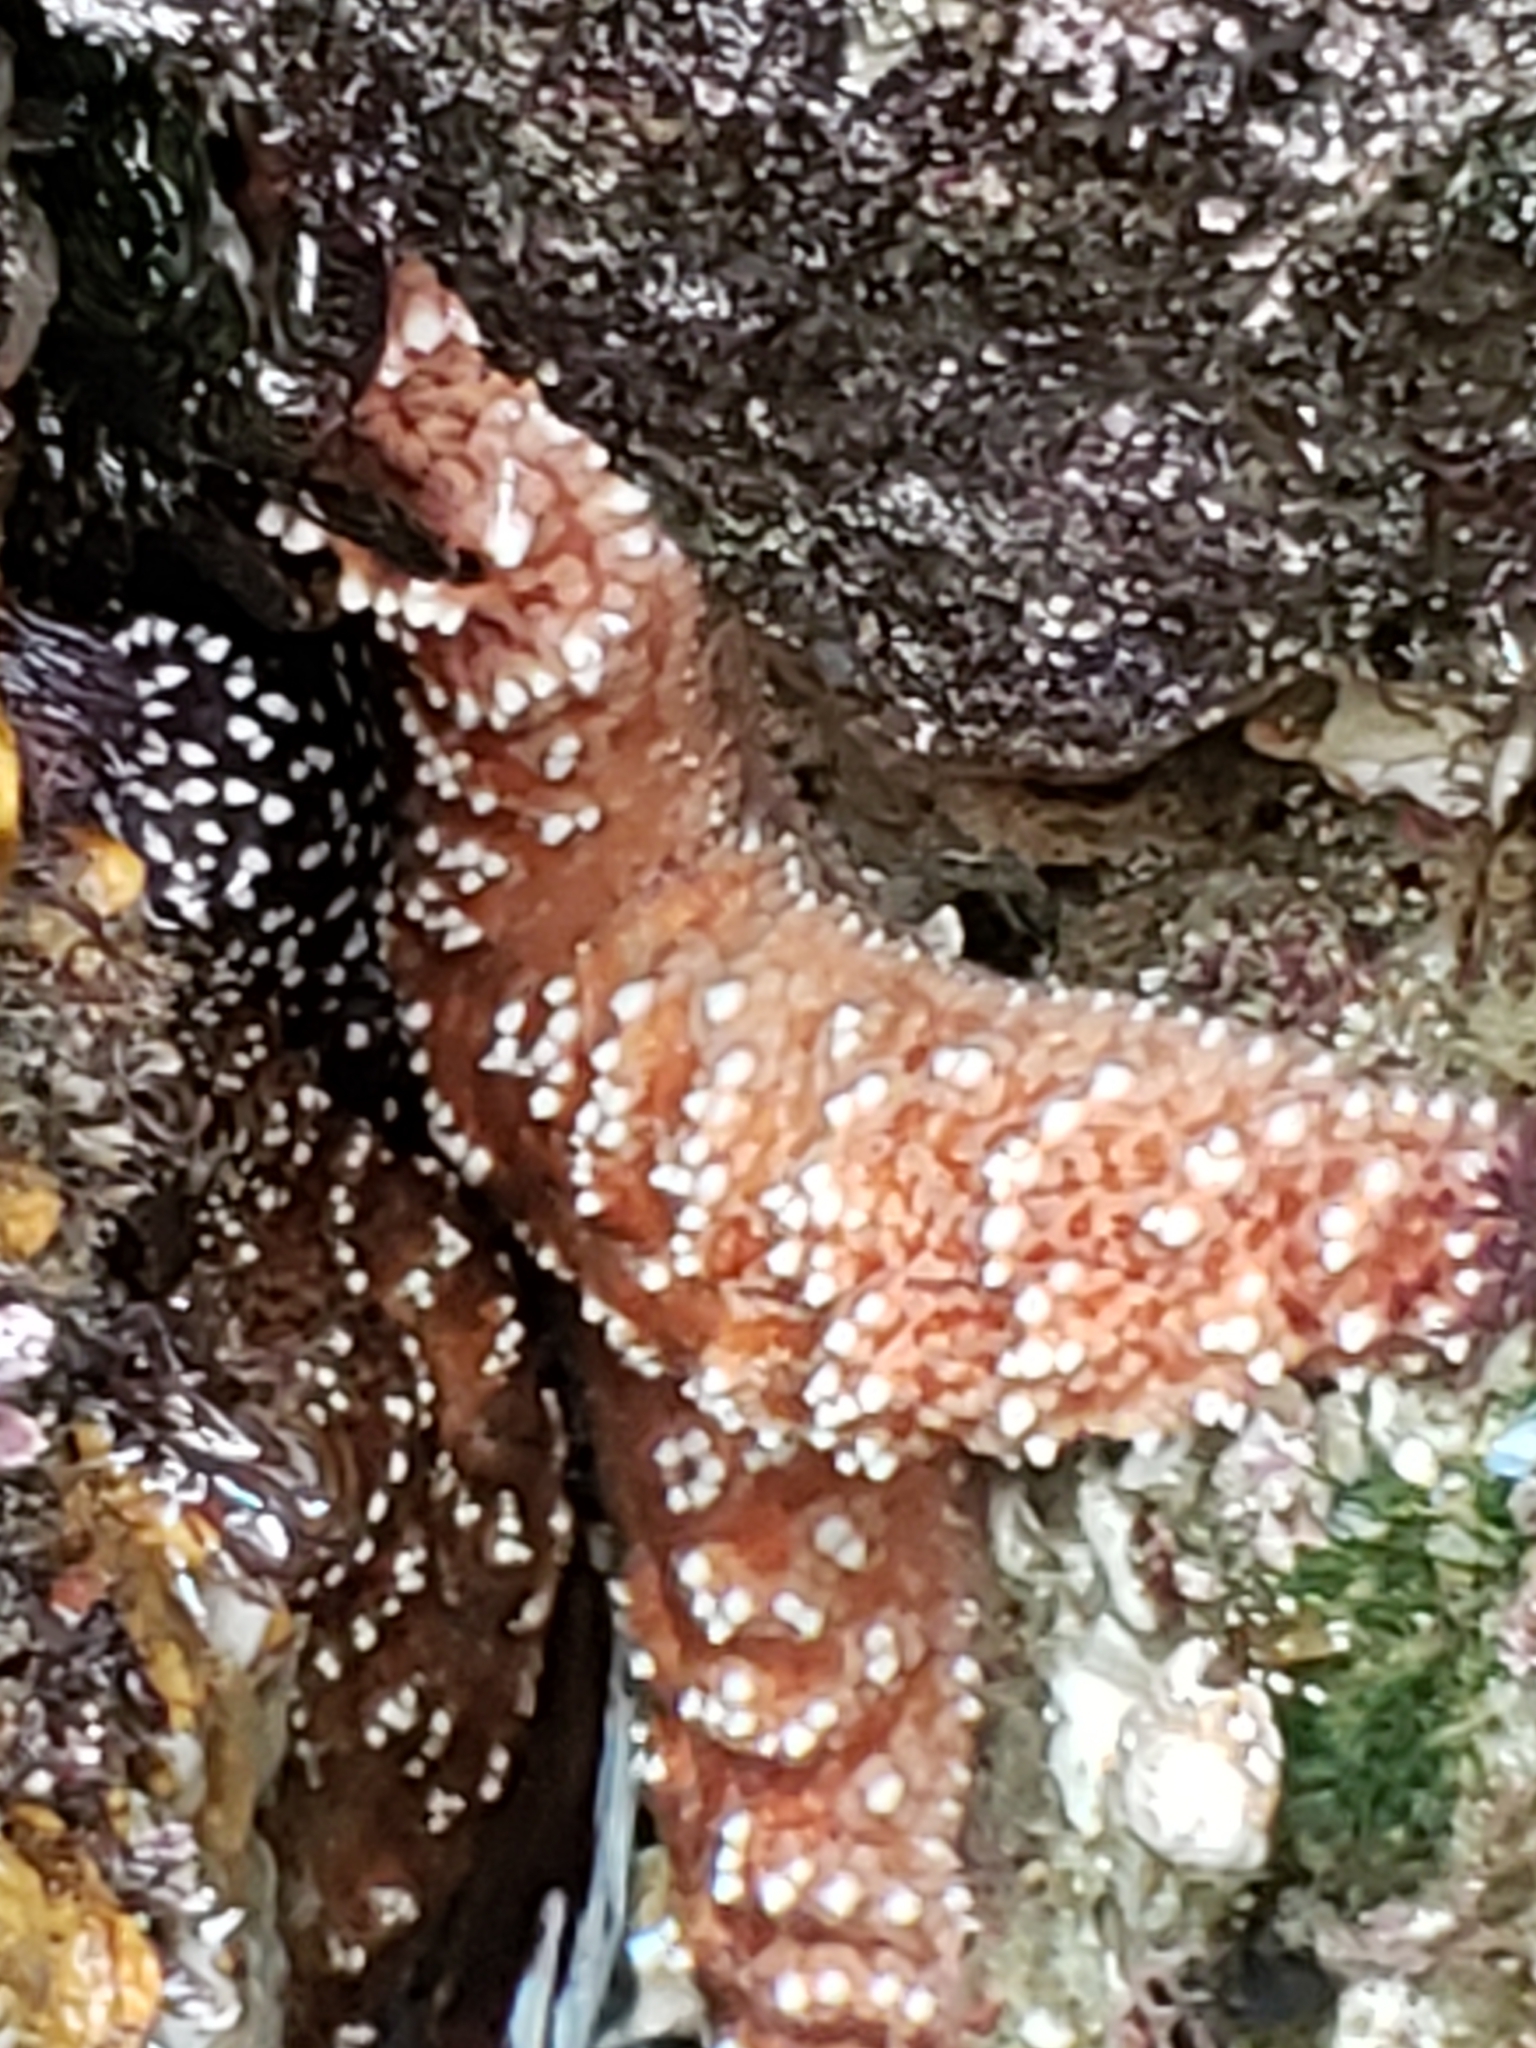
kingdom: Animalia
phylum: Echinodermata
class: Asteroidea
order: Forcipulatida
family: Asteriidae
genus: Pisaster
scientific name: Pisaster ochraceus
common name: Ochre stars
